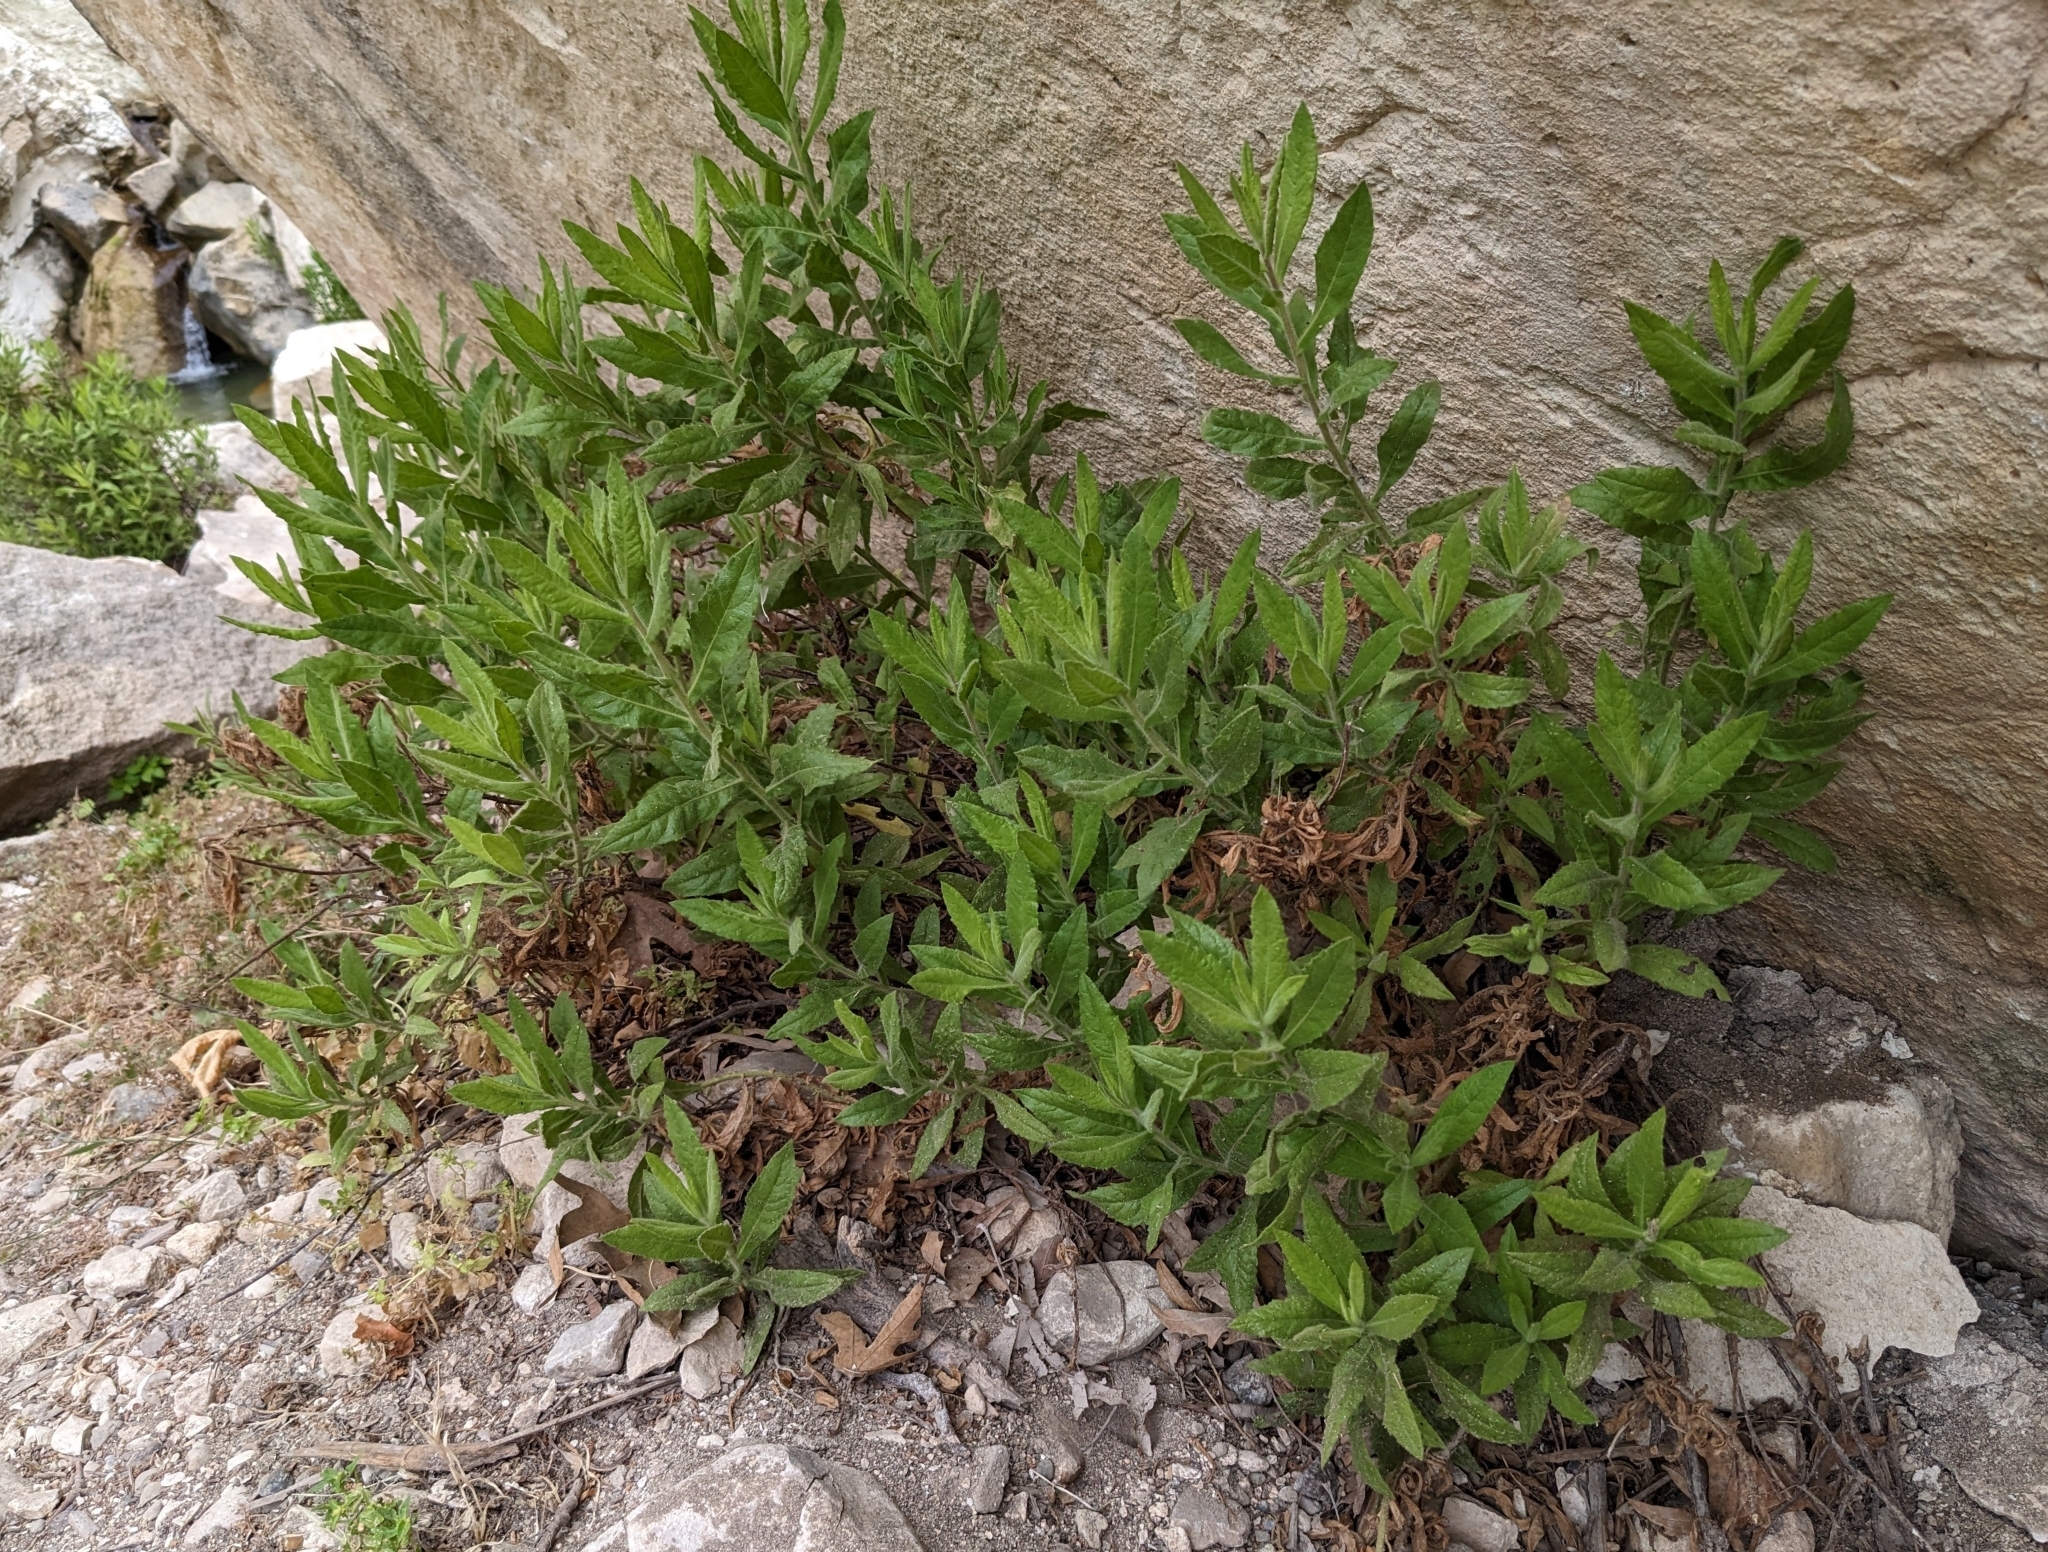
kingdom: Plantae
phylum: Tracheophyta
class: Magnoliopsida
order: Asterales
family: Asteraceae
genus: Dittrichia
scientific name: Dittrichia viscosa
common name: Woody fleabane
